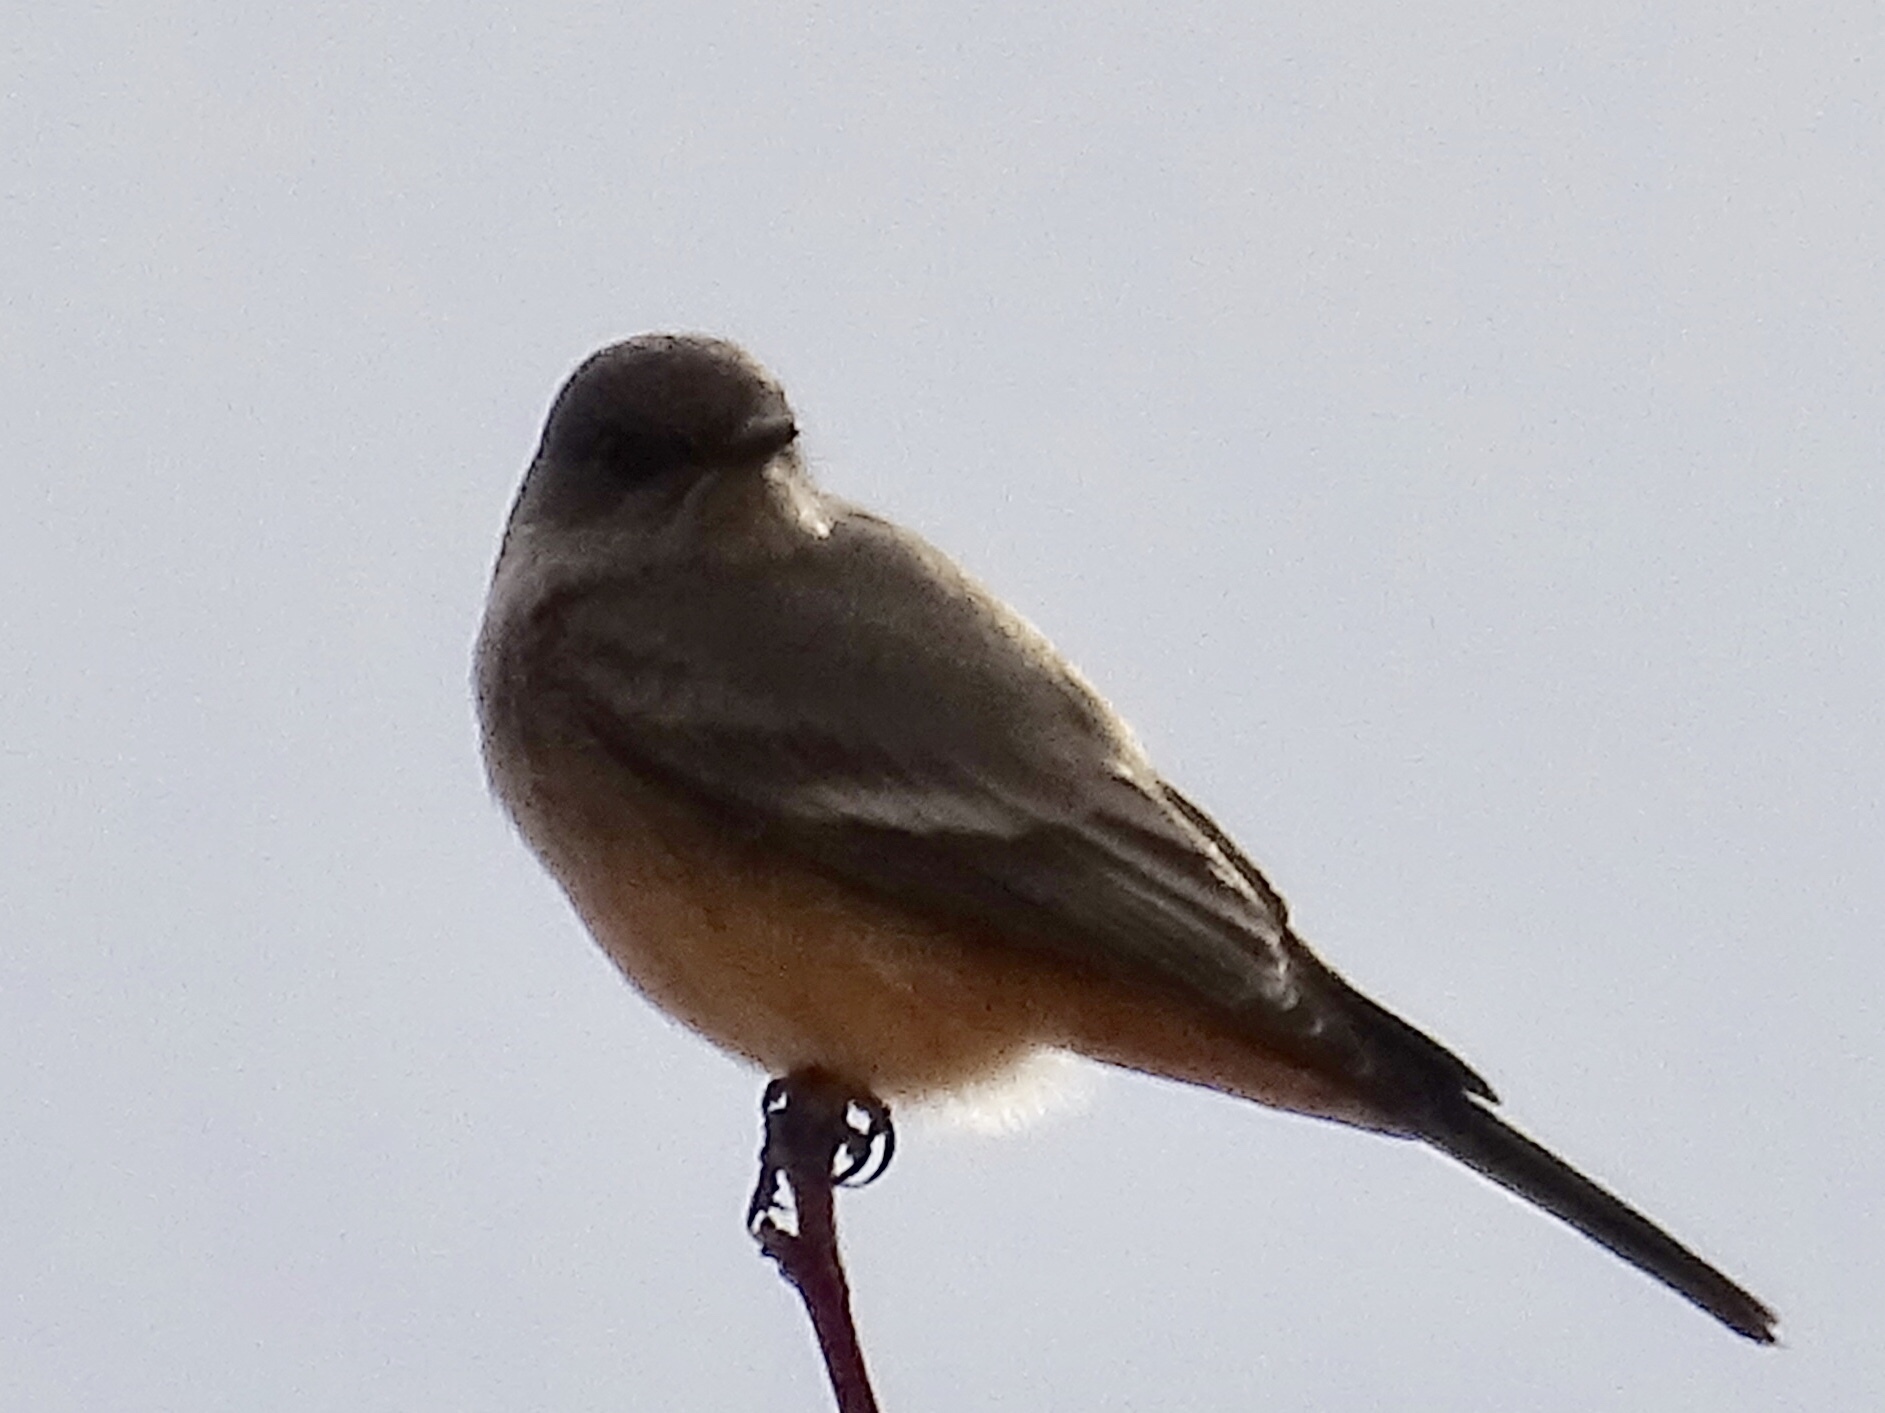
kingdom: Animalia
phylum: Chordata
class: Aves
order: Passeriformes
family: Tyrannidae
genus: Sayornis
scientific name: Sayornis saya
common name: Say's phoebe
